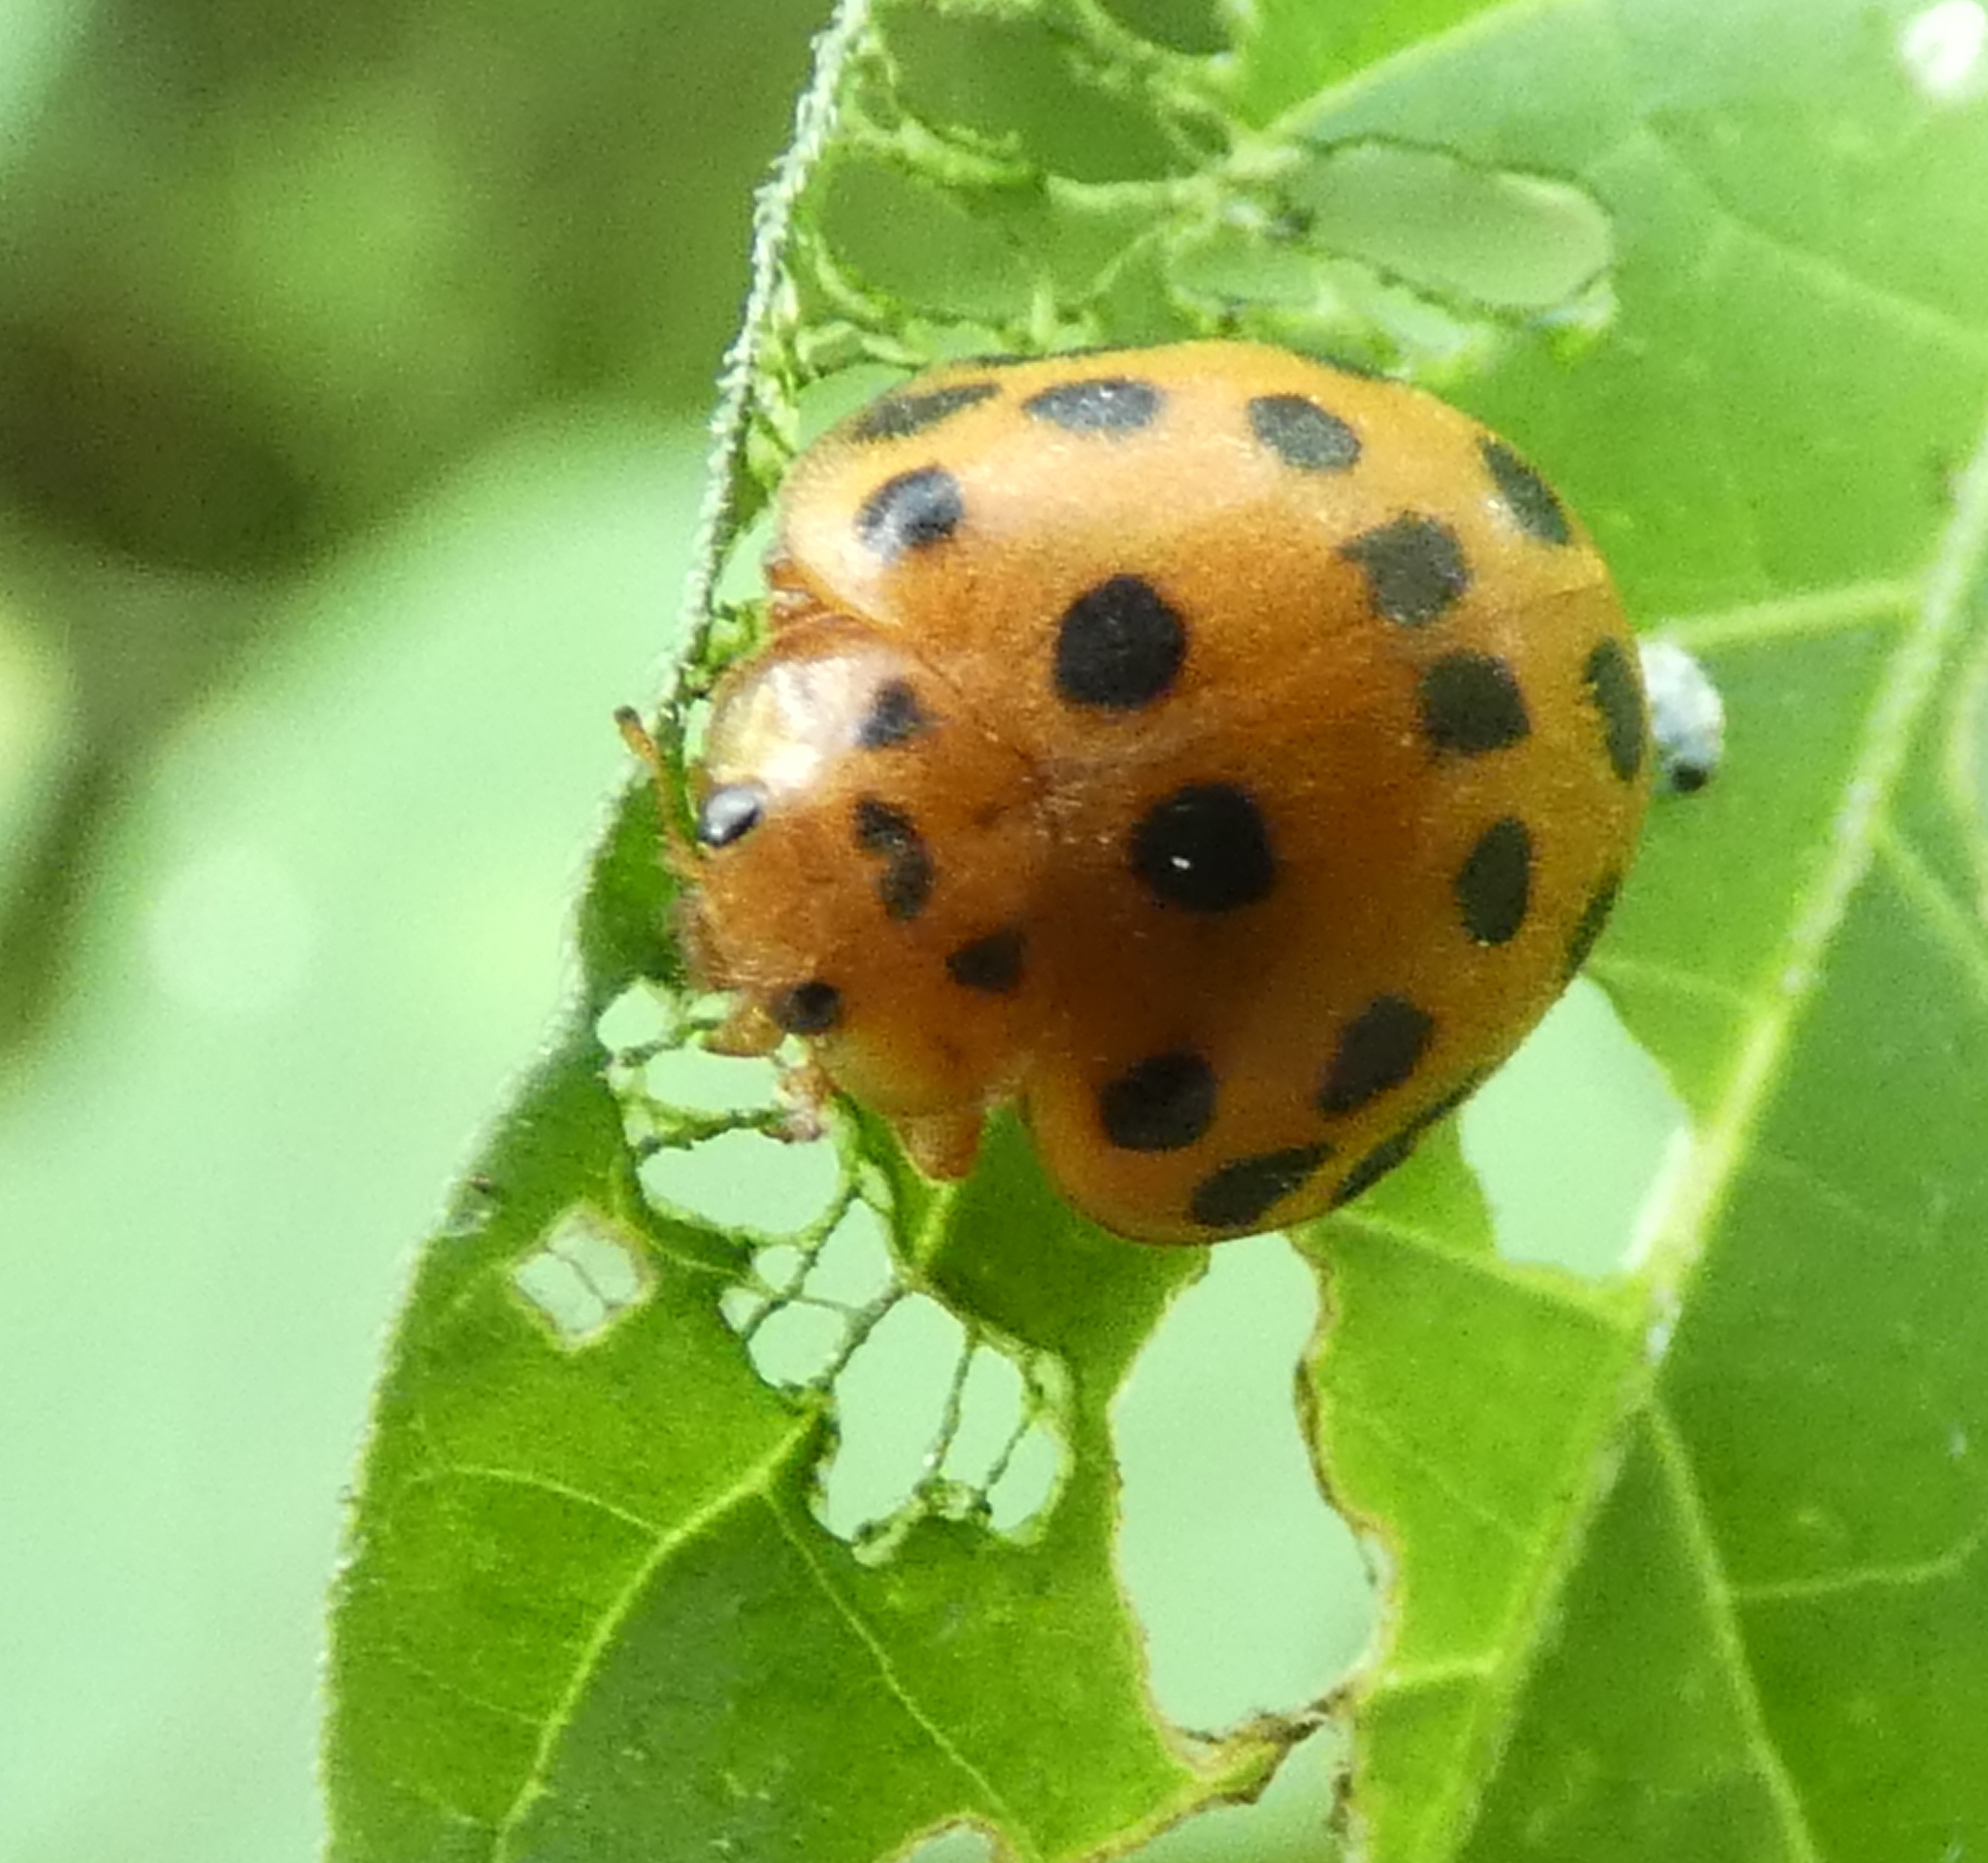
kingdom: Animalia
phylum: Arthropoda
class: Insecta
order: Coleoptera
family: Coccinellidae
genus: Henosepilachna
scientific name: Henosepilachna vigintioctopunctata
